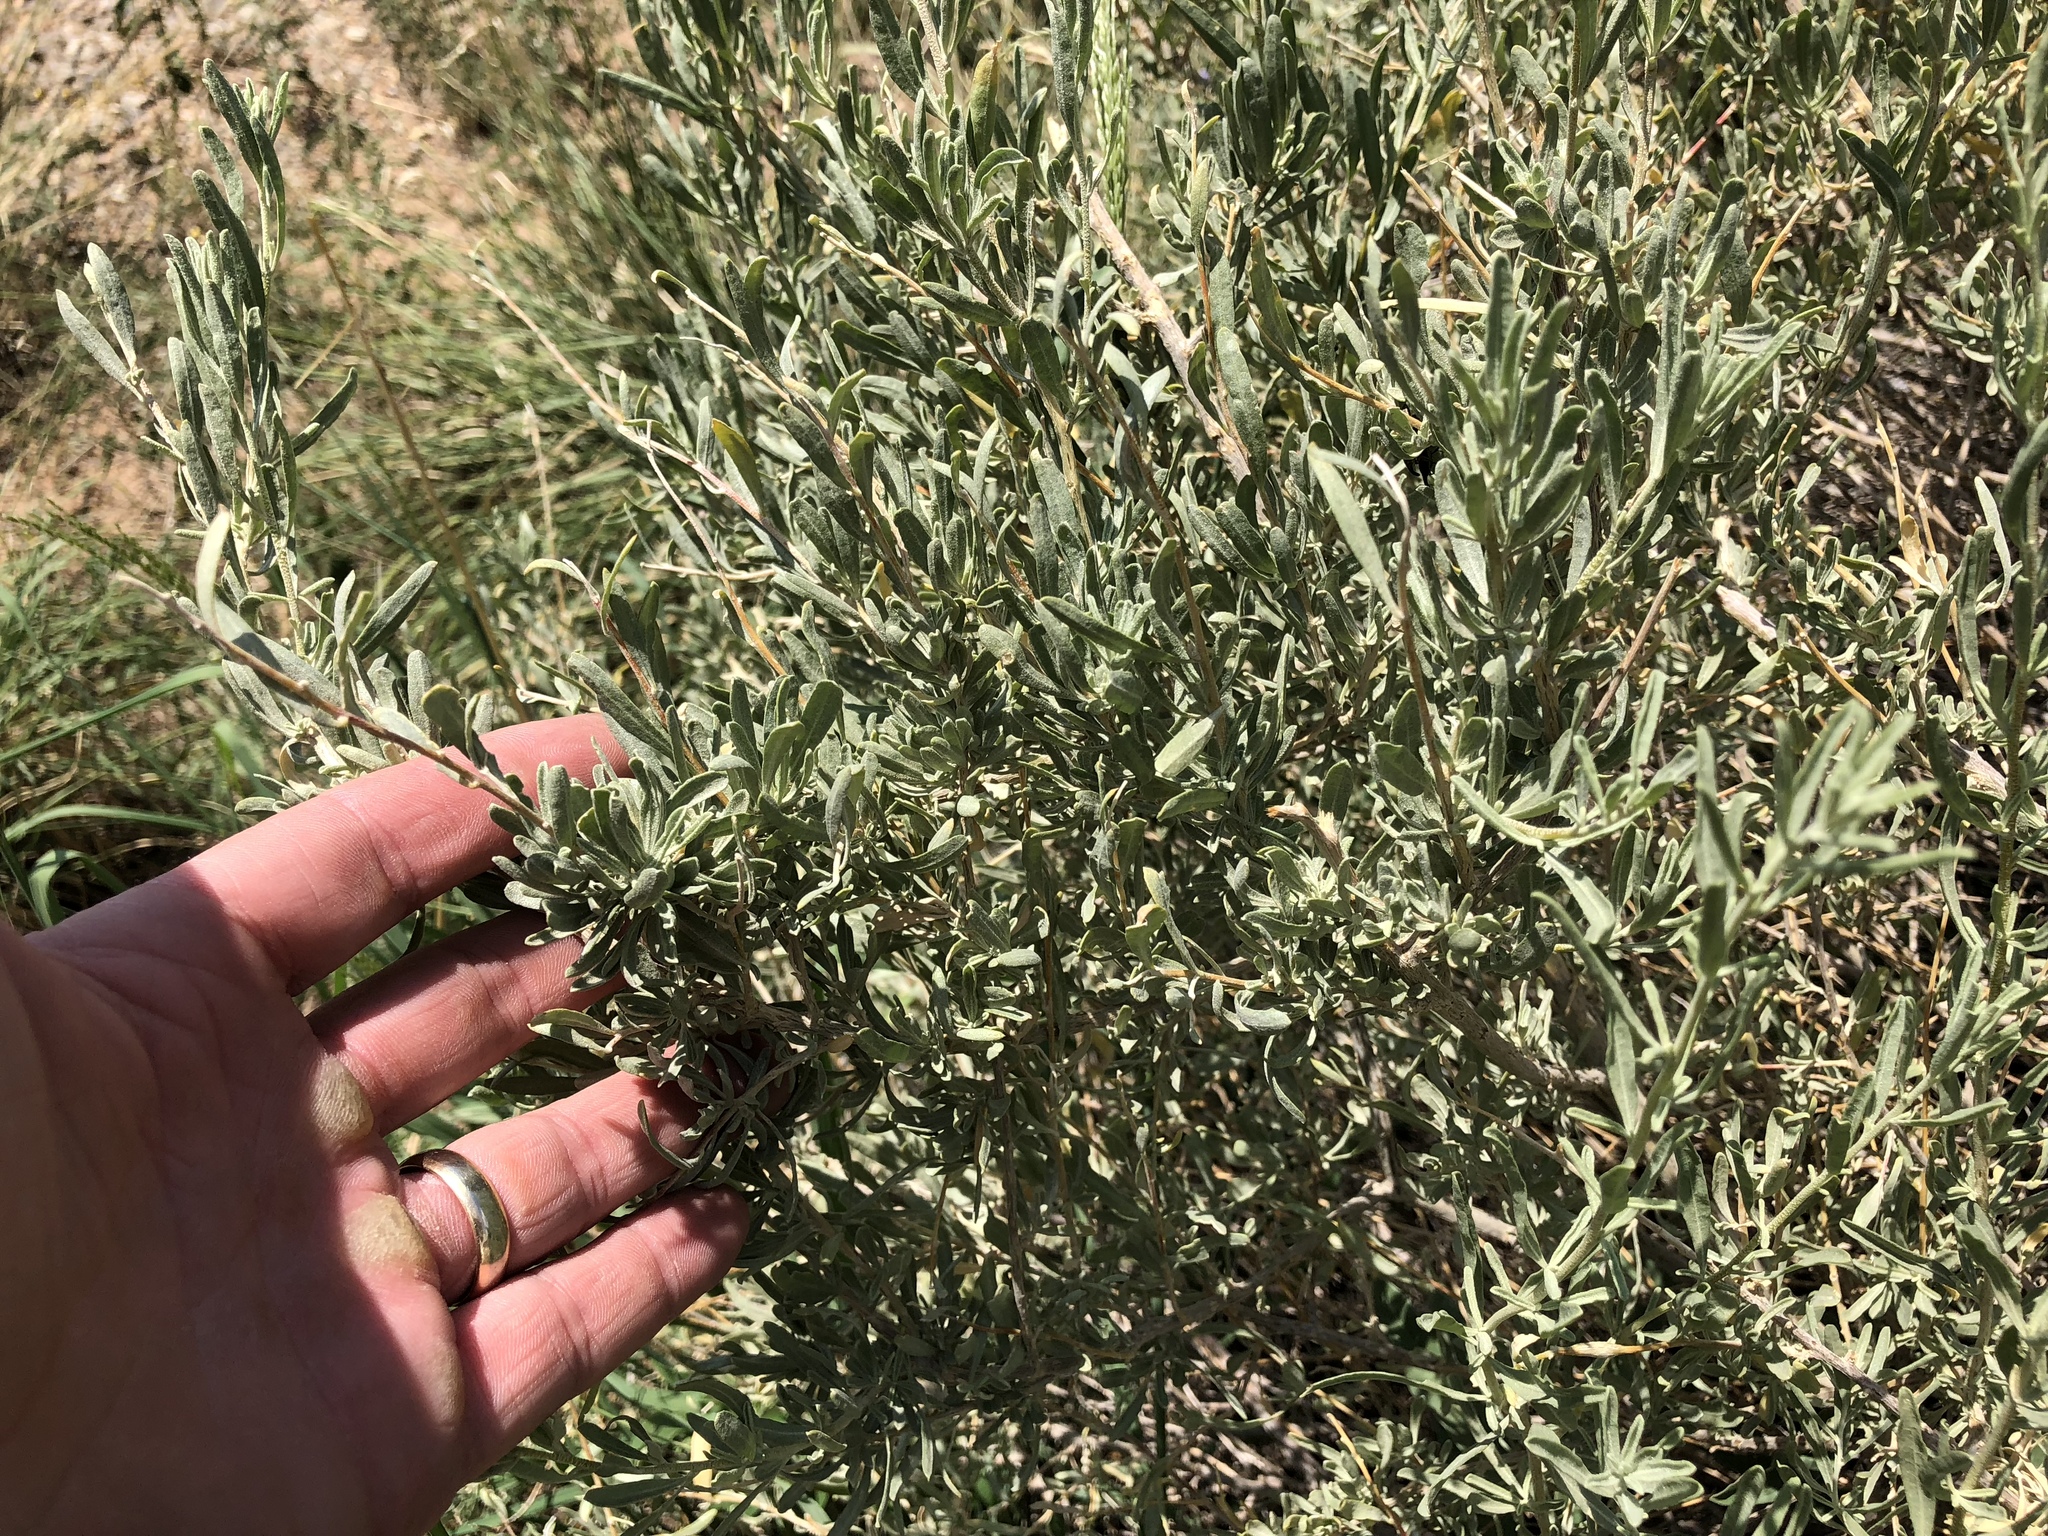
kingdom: Plantae
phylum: Tracheophyta
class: Magnoliopsida
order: Caryophyllales
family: Amaranthaceae
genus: Atriplex
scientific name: Atriplex canescens
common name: Four-wing saltbush
